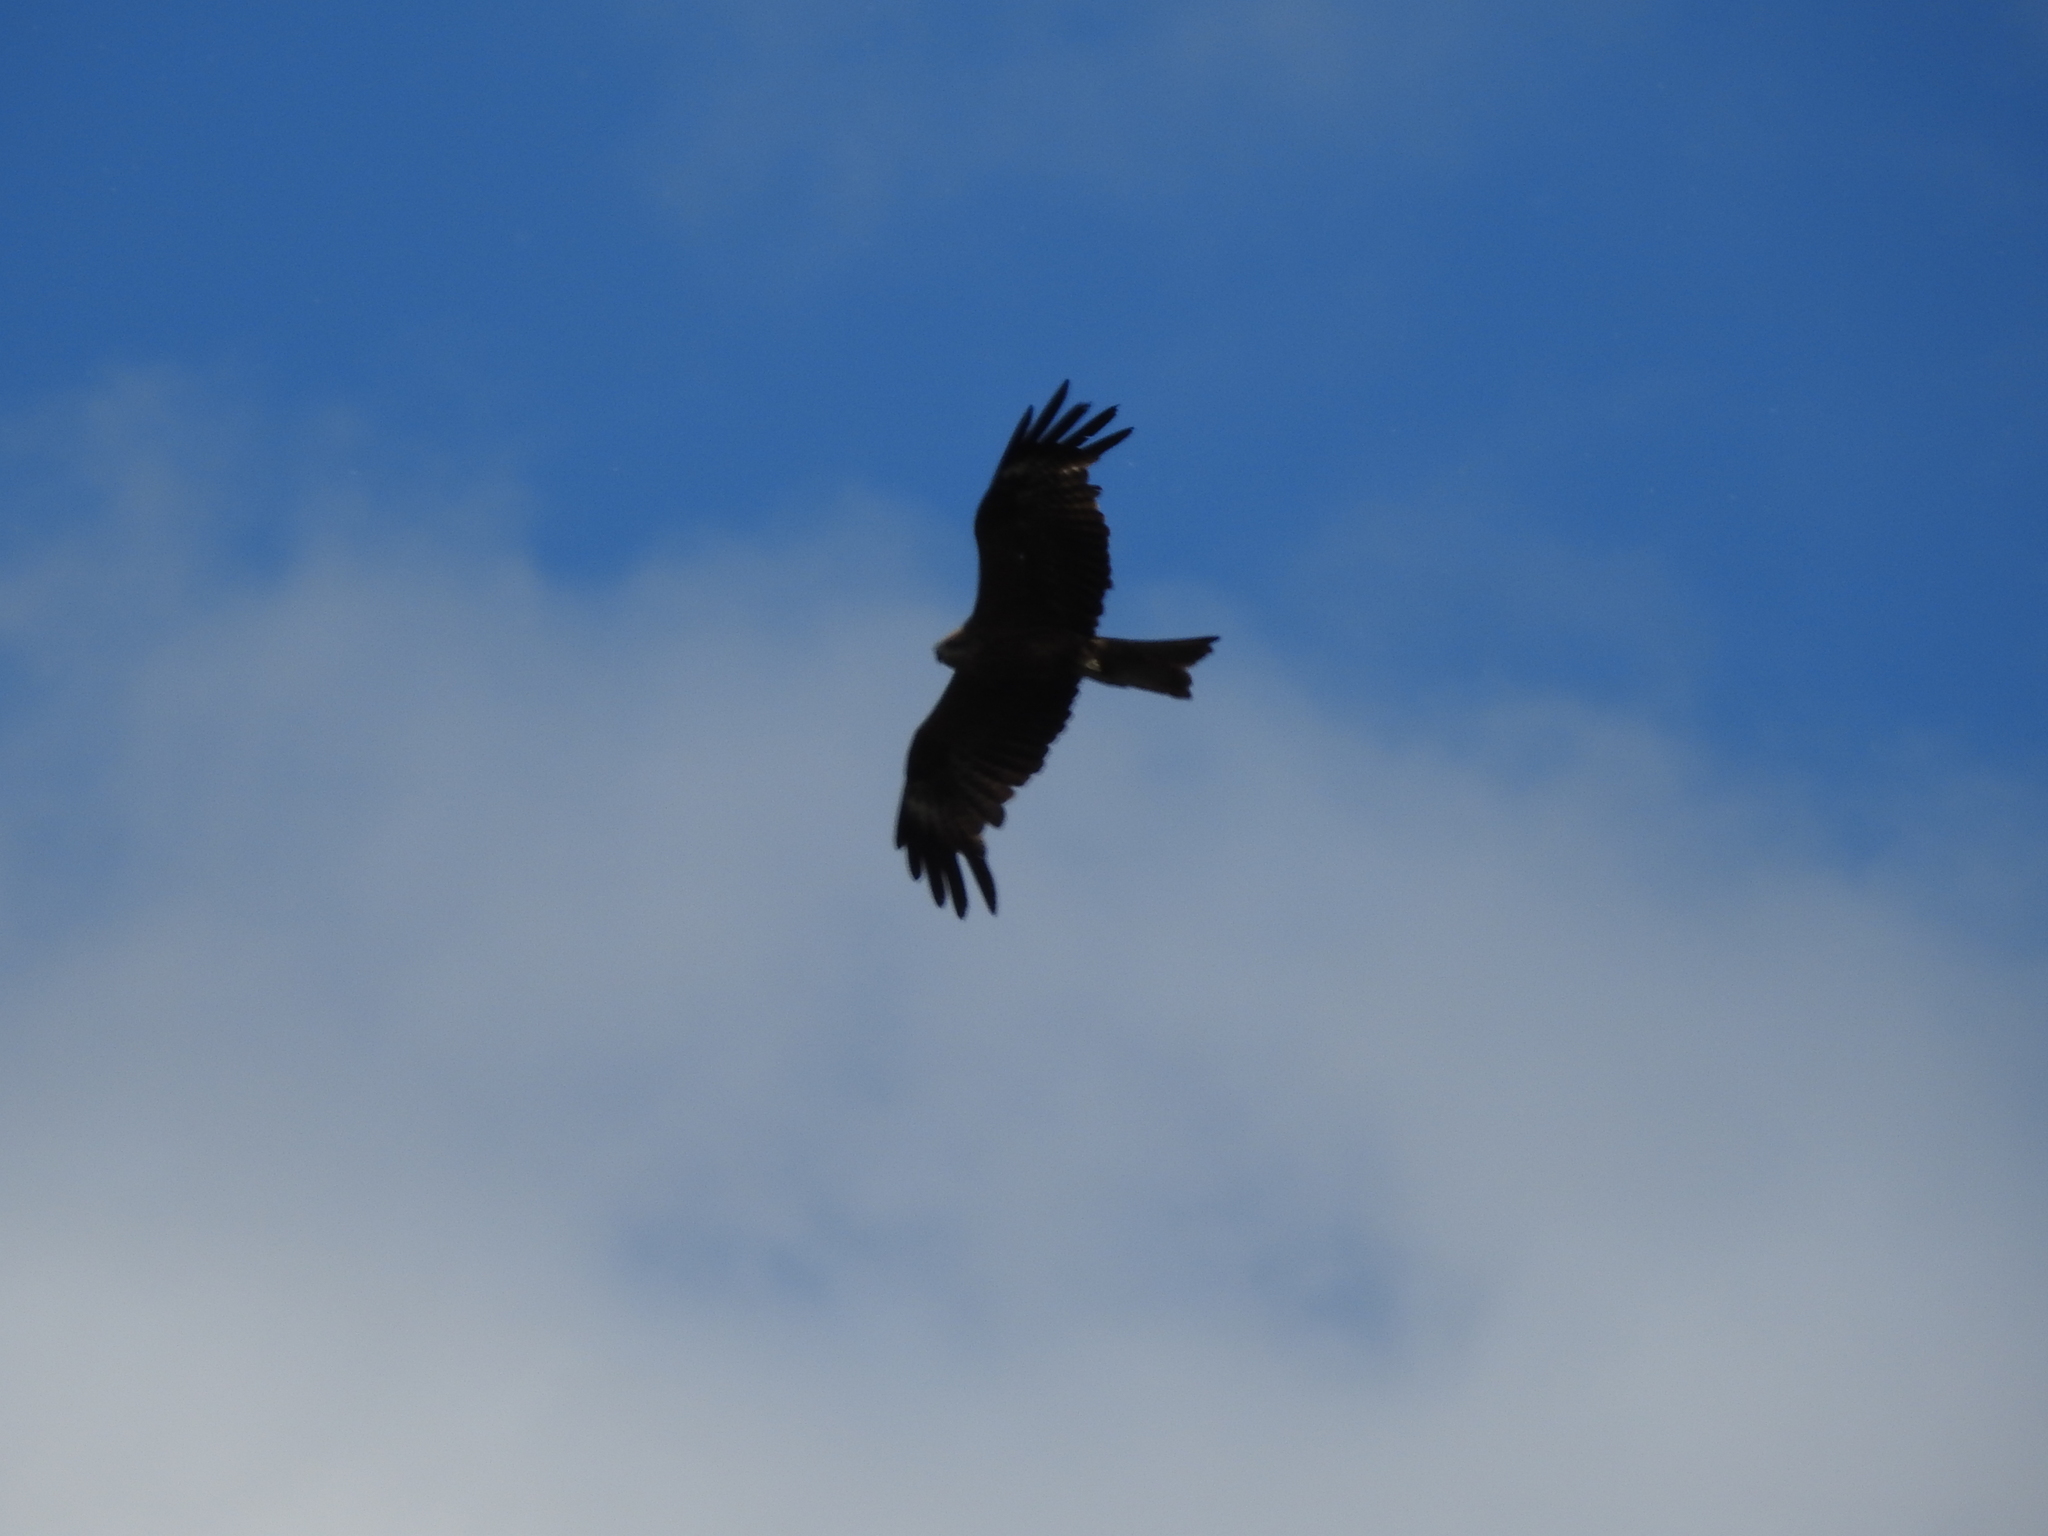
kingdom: Animalia
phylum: Chordata
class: Aves
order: Accipitriformes
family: Accipitridae
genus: Milvus
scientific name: Milvus migrans
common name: Black kite
